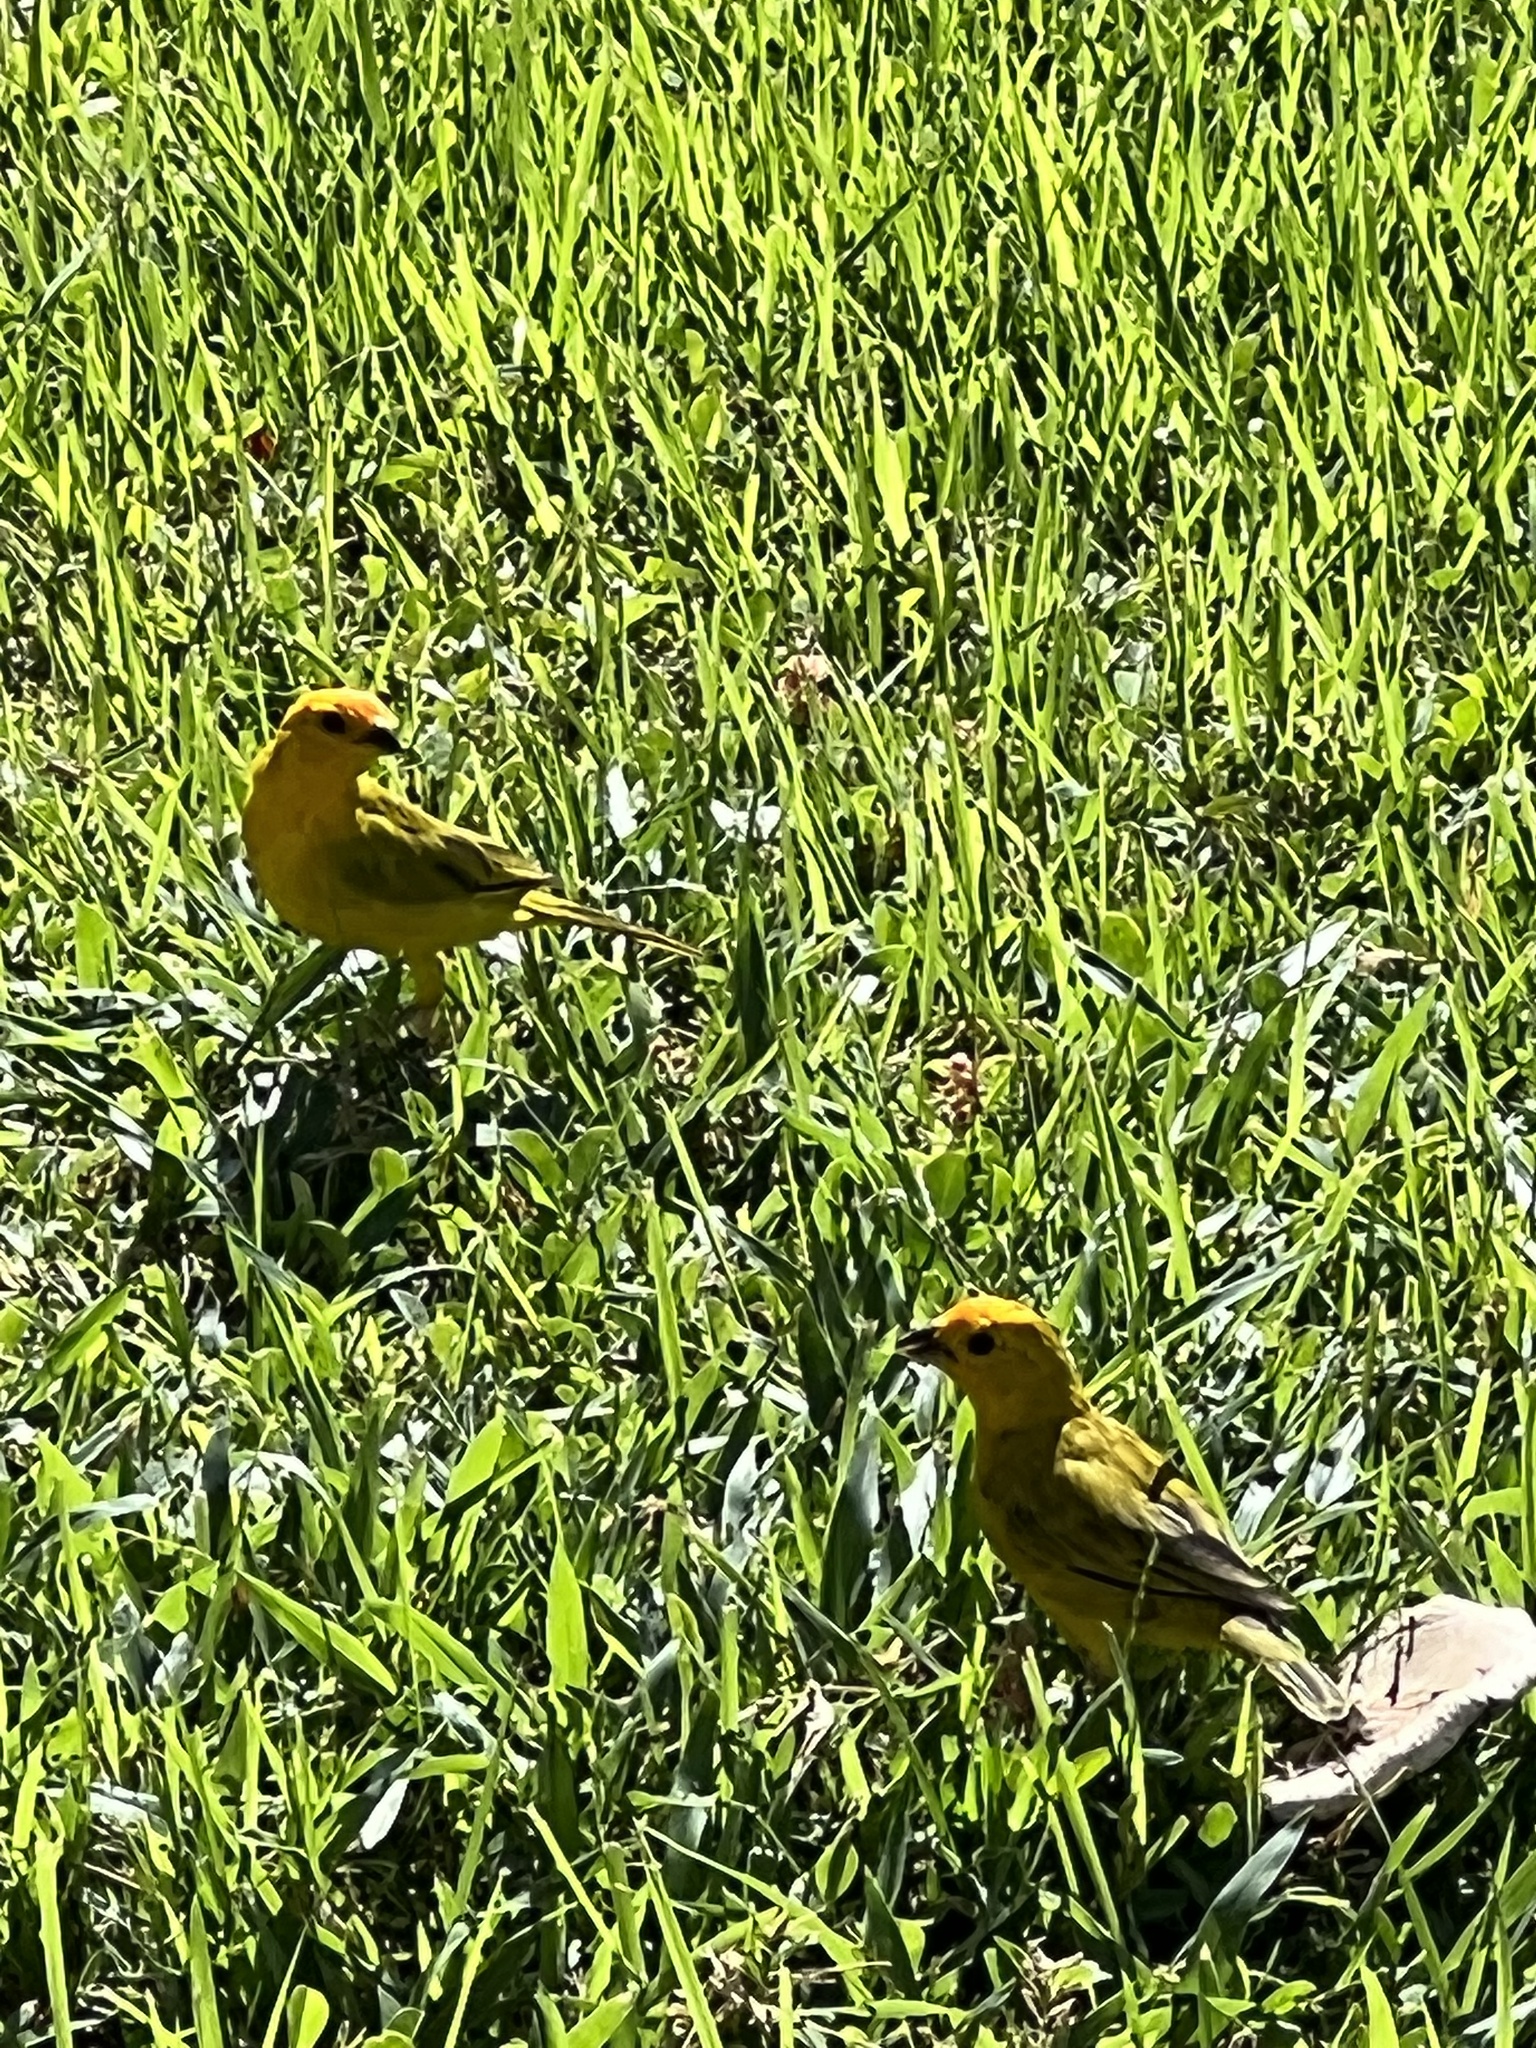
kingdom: Animalia
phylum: Chordata
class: Aves
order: Passeriformes
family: Thraupidae
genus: Sicalis
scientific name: Sicalis flaveola
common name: Saffron finch
